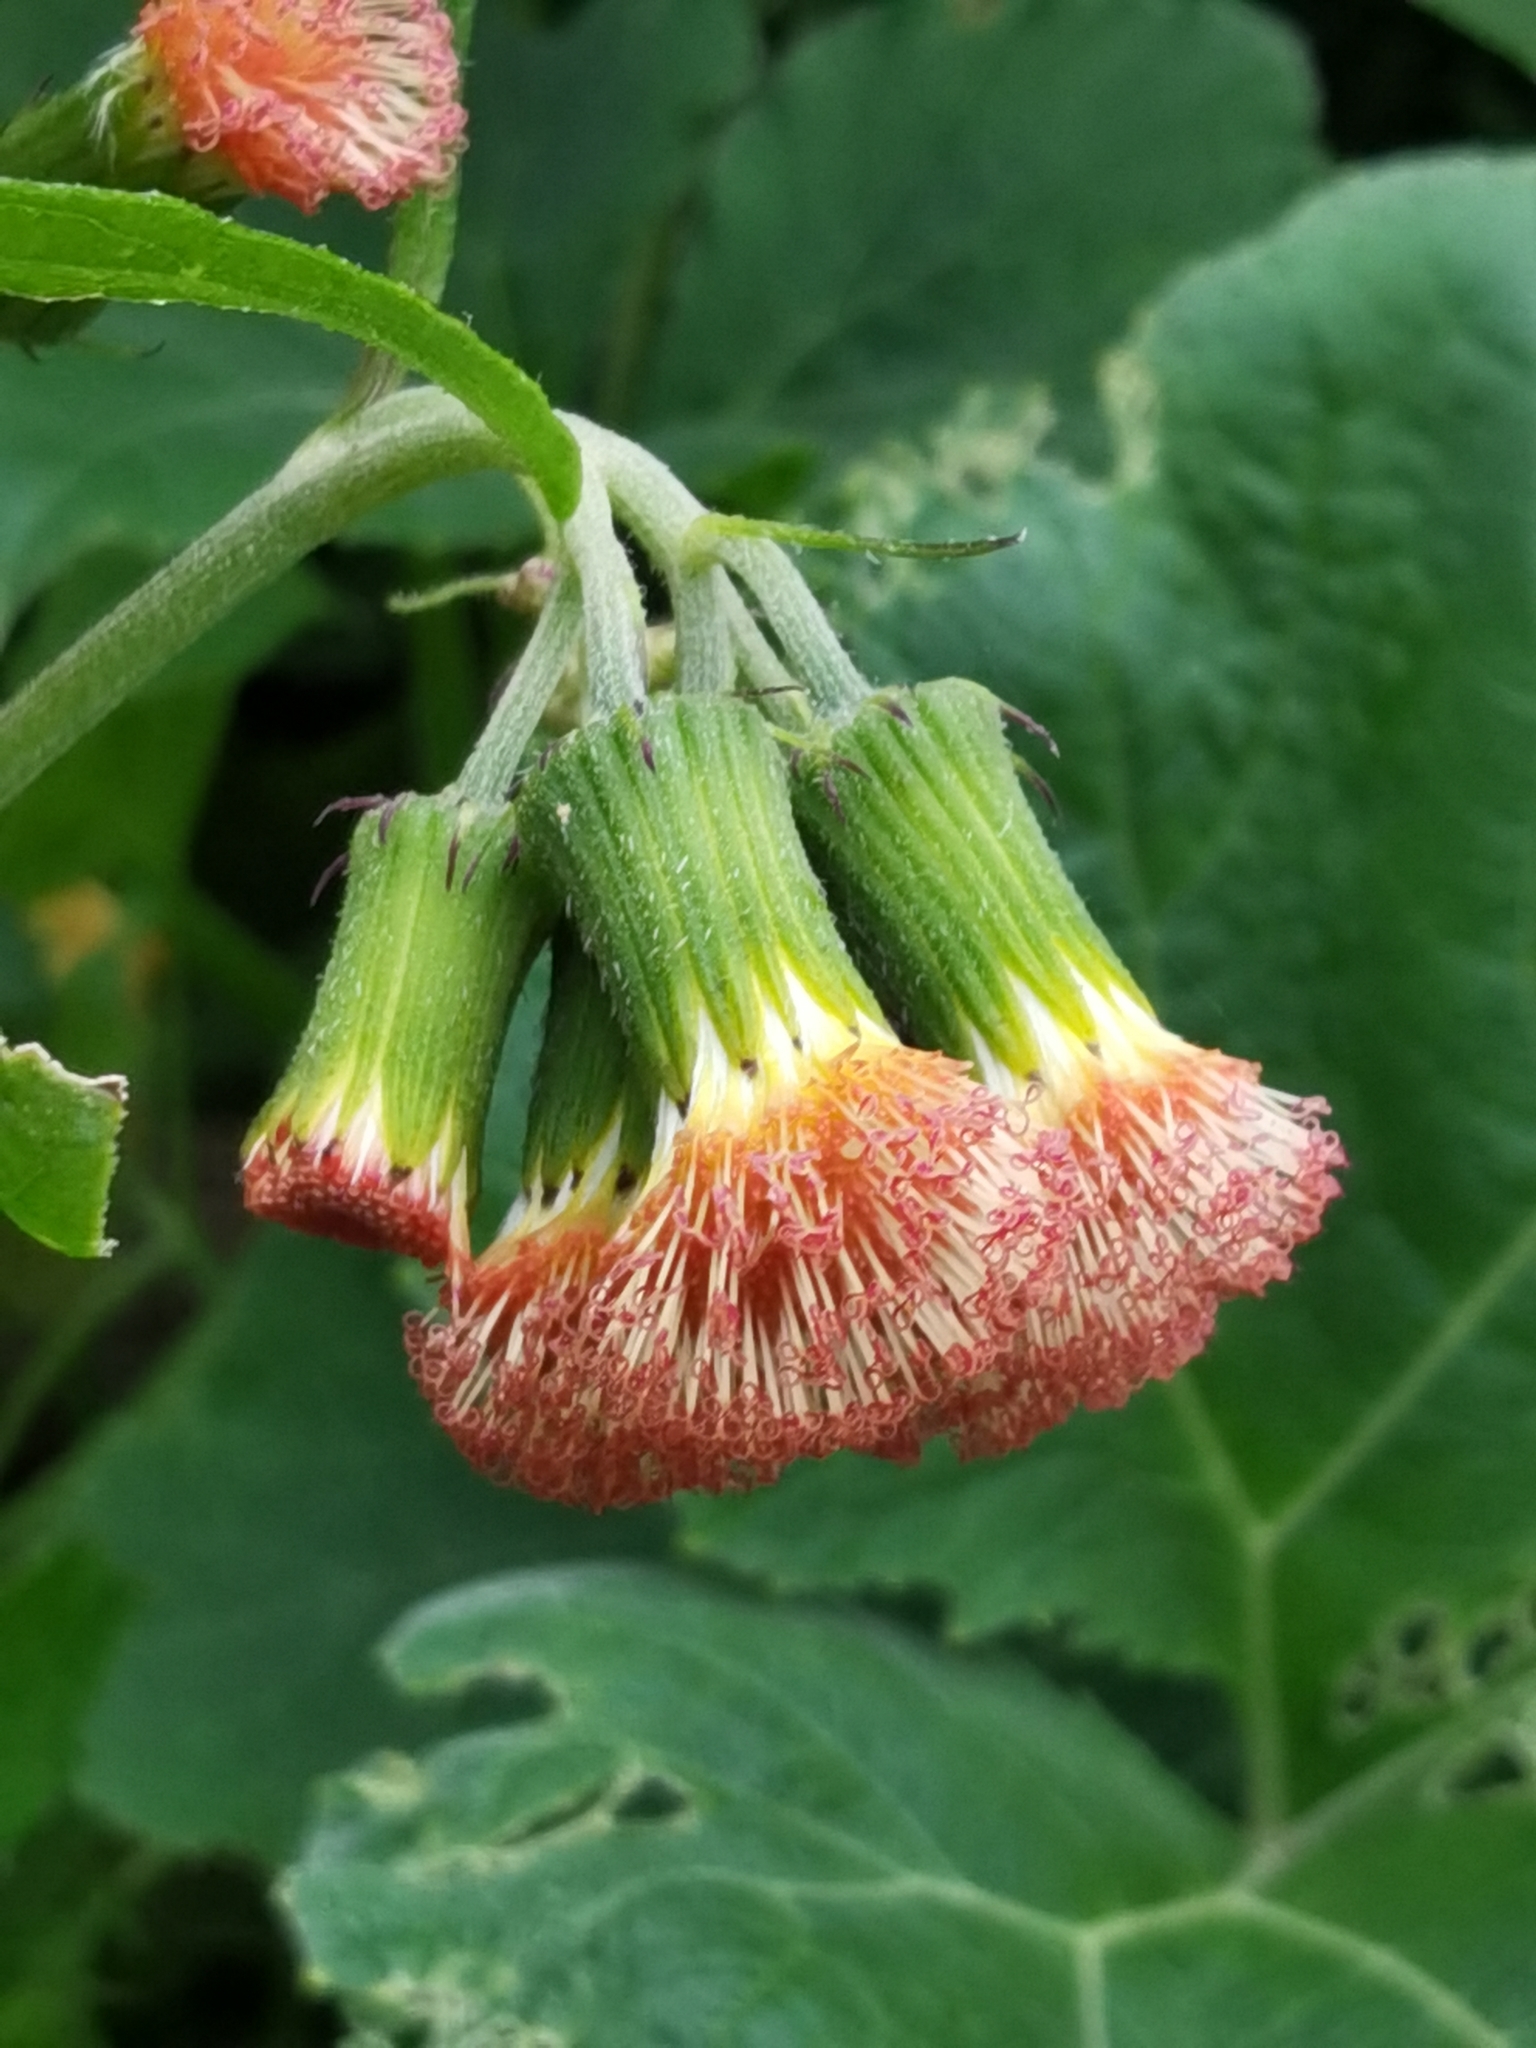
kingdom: Plantae
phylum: Tracheophyta
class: Magnoliopsida
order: Asterales
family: Asteraceae
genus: Crassocephalum
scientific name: Crassocephalum crepidioides
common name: Redflower ragleaf
